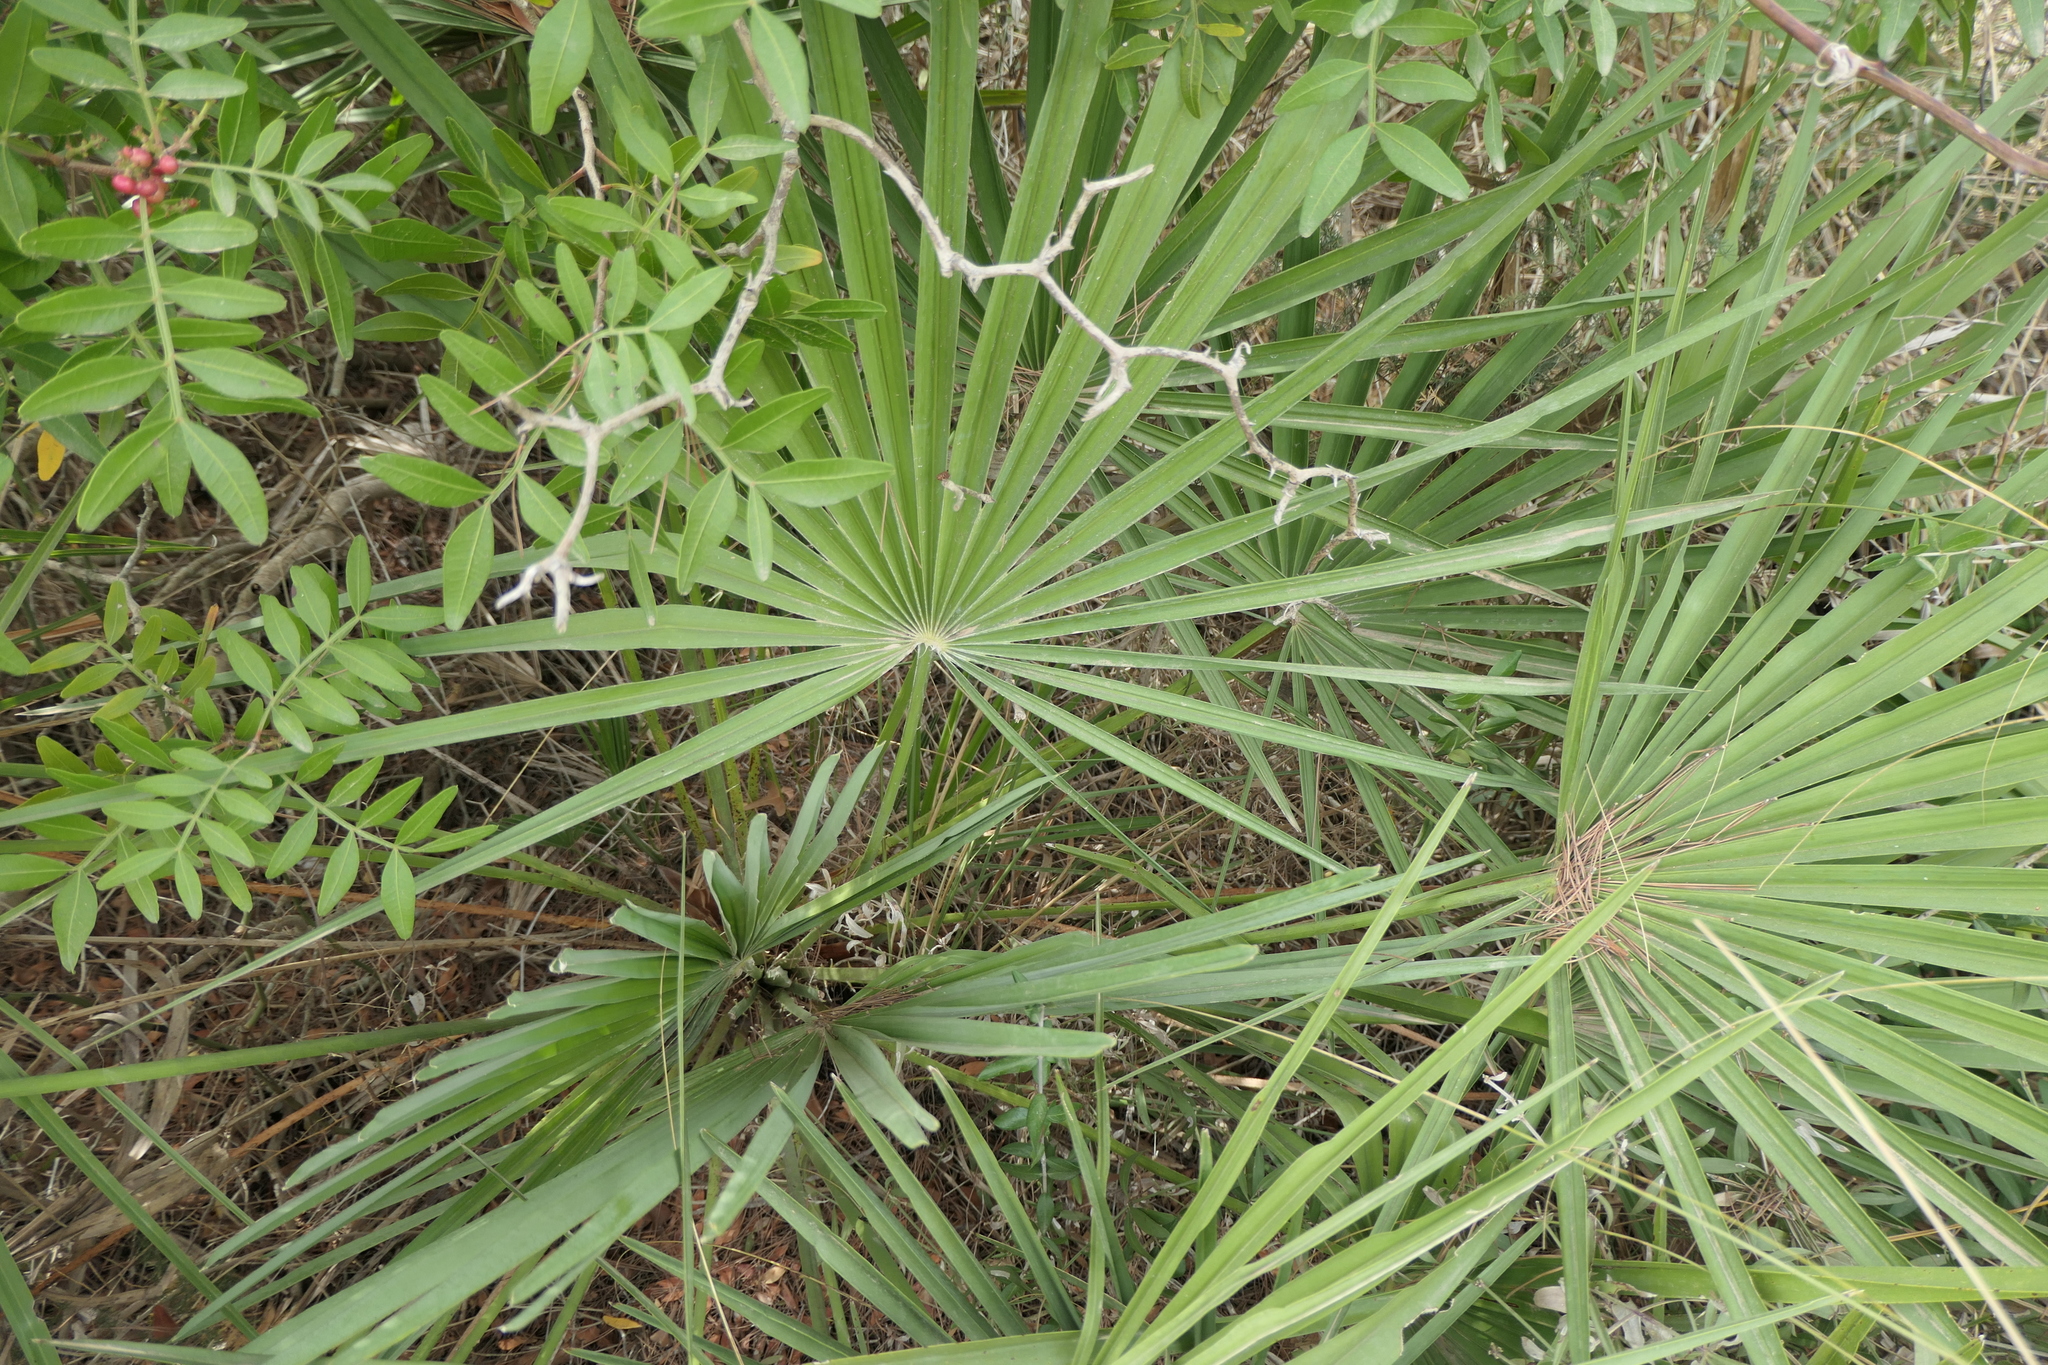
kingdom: Plantae
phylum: Tracheophyta
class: Liliopsida
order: Arecales
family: Arecaceae
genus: Chamaerops
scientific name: Chamaerops humilis
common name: Dwarf fan palm
